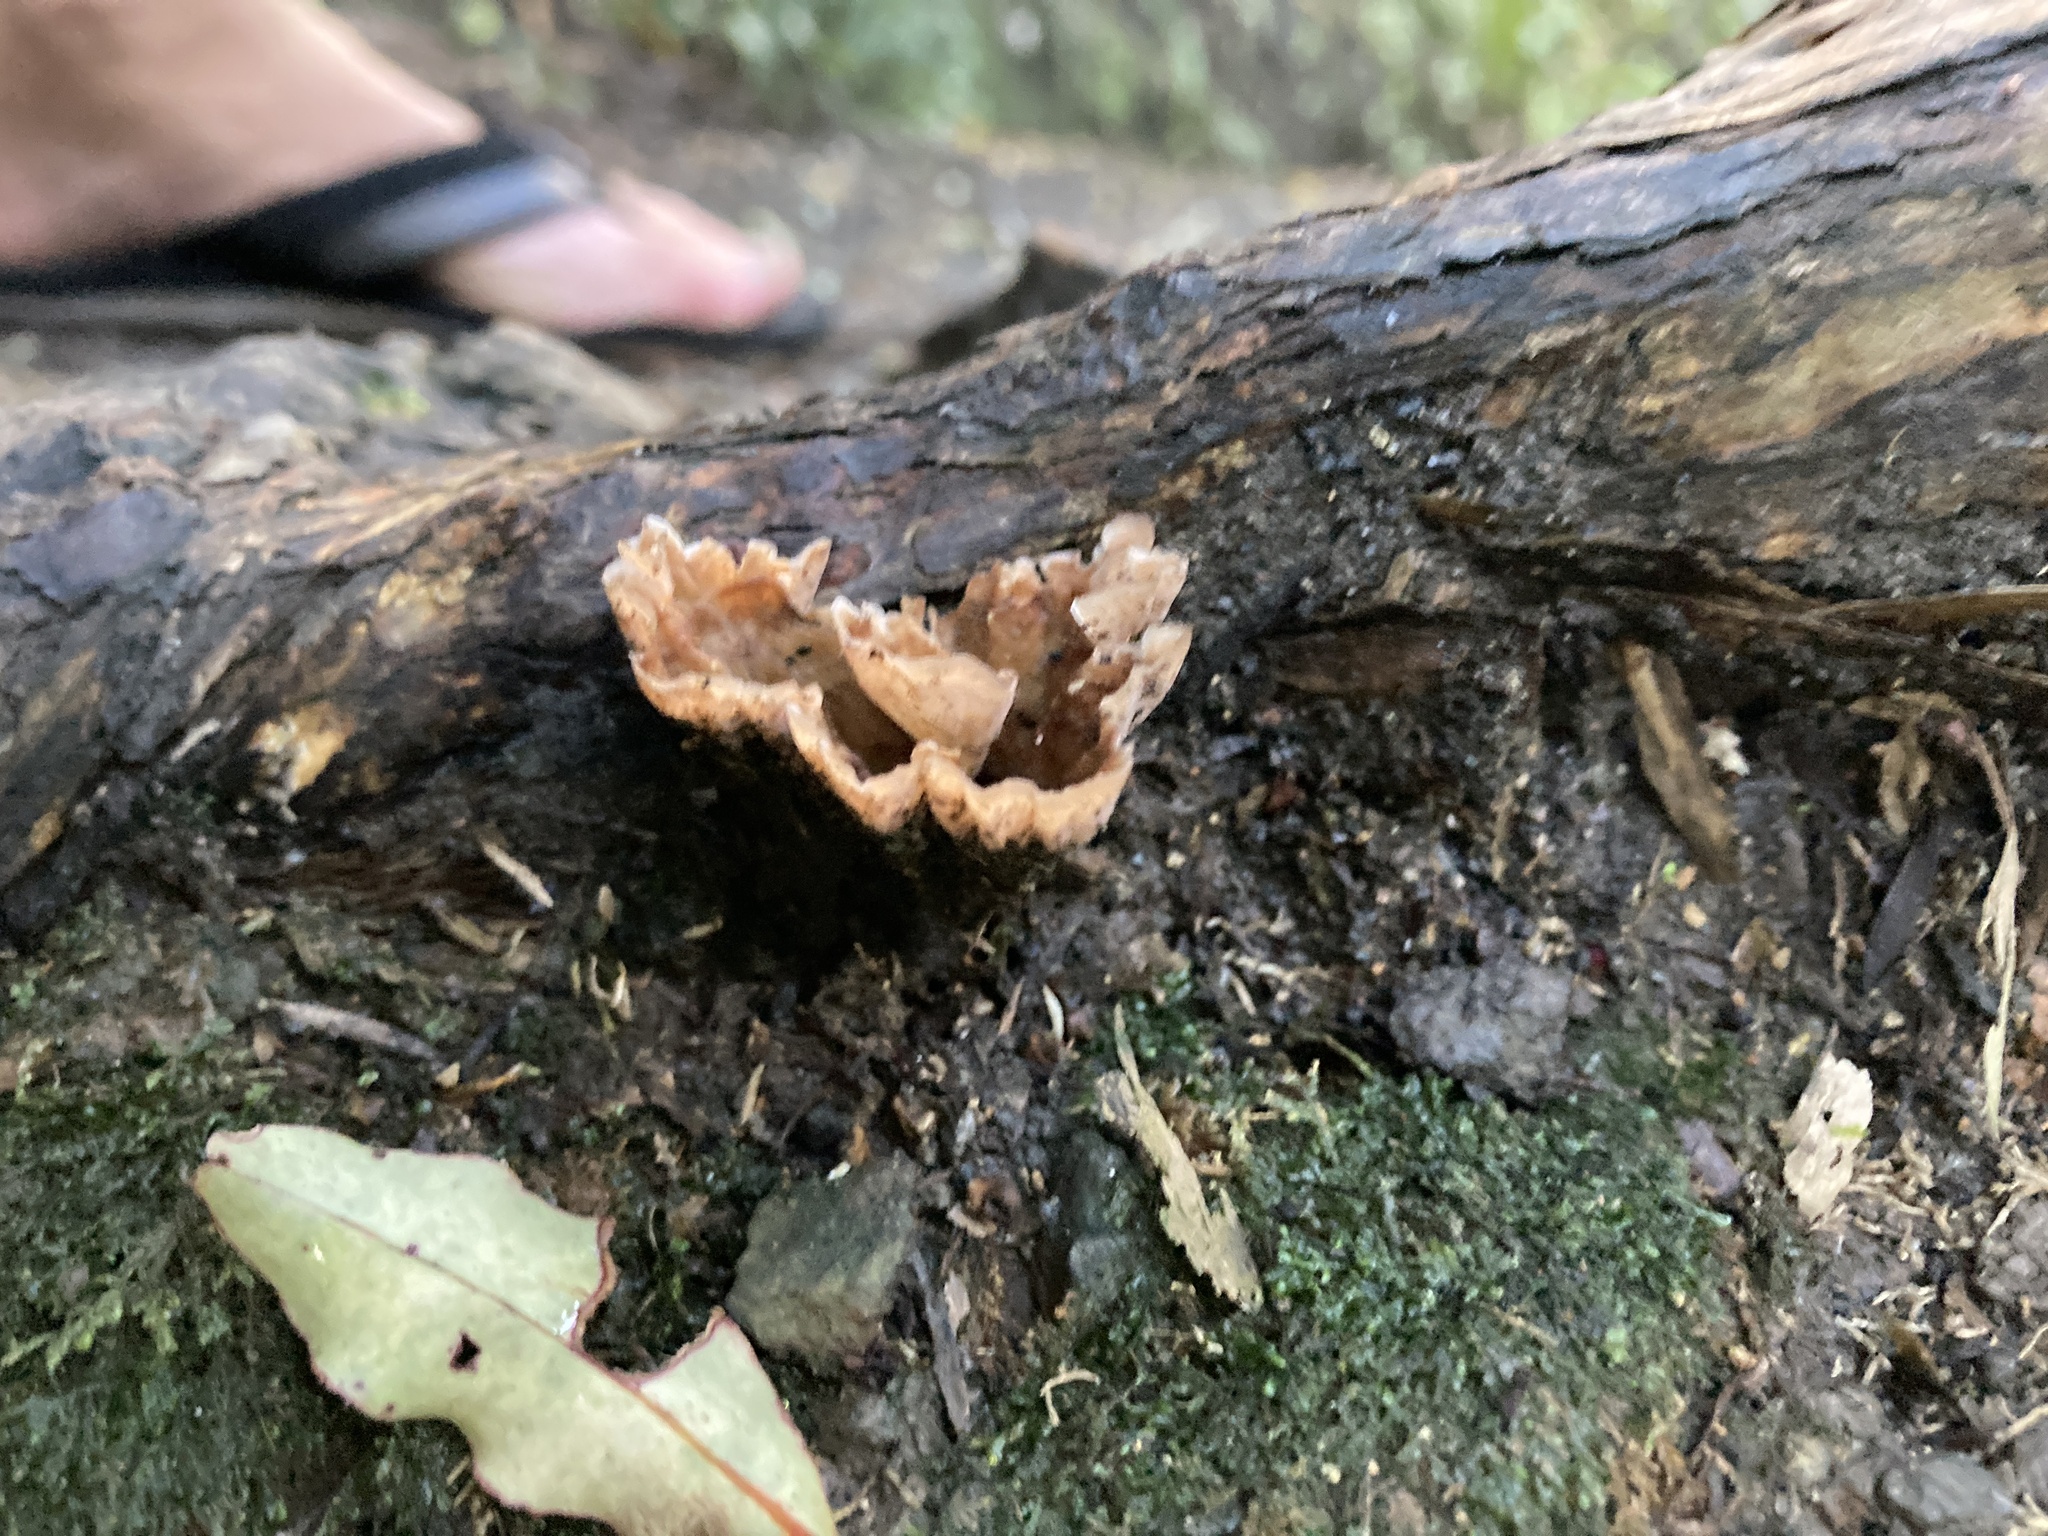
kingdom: Fungi
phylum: Basidiomycota
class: Agaricomycetes
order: Polyporales
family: Podoscyphaceae
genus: Podoscypha
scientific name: Podoscypha petalodes
